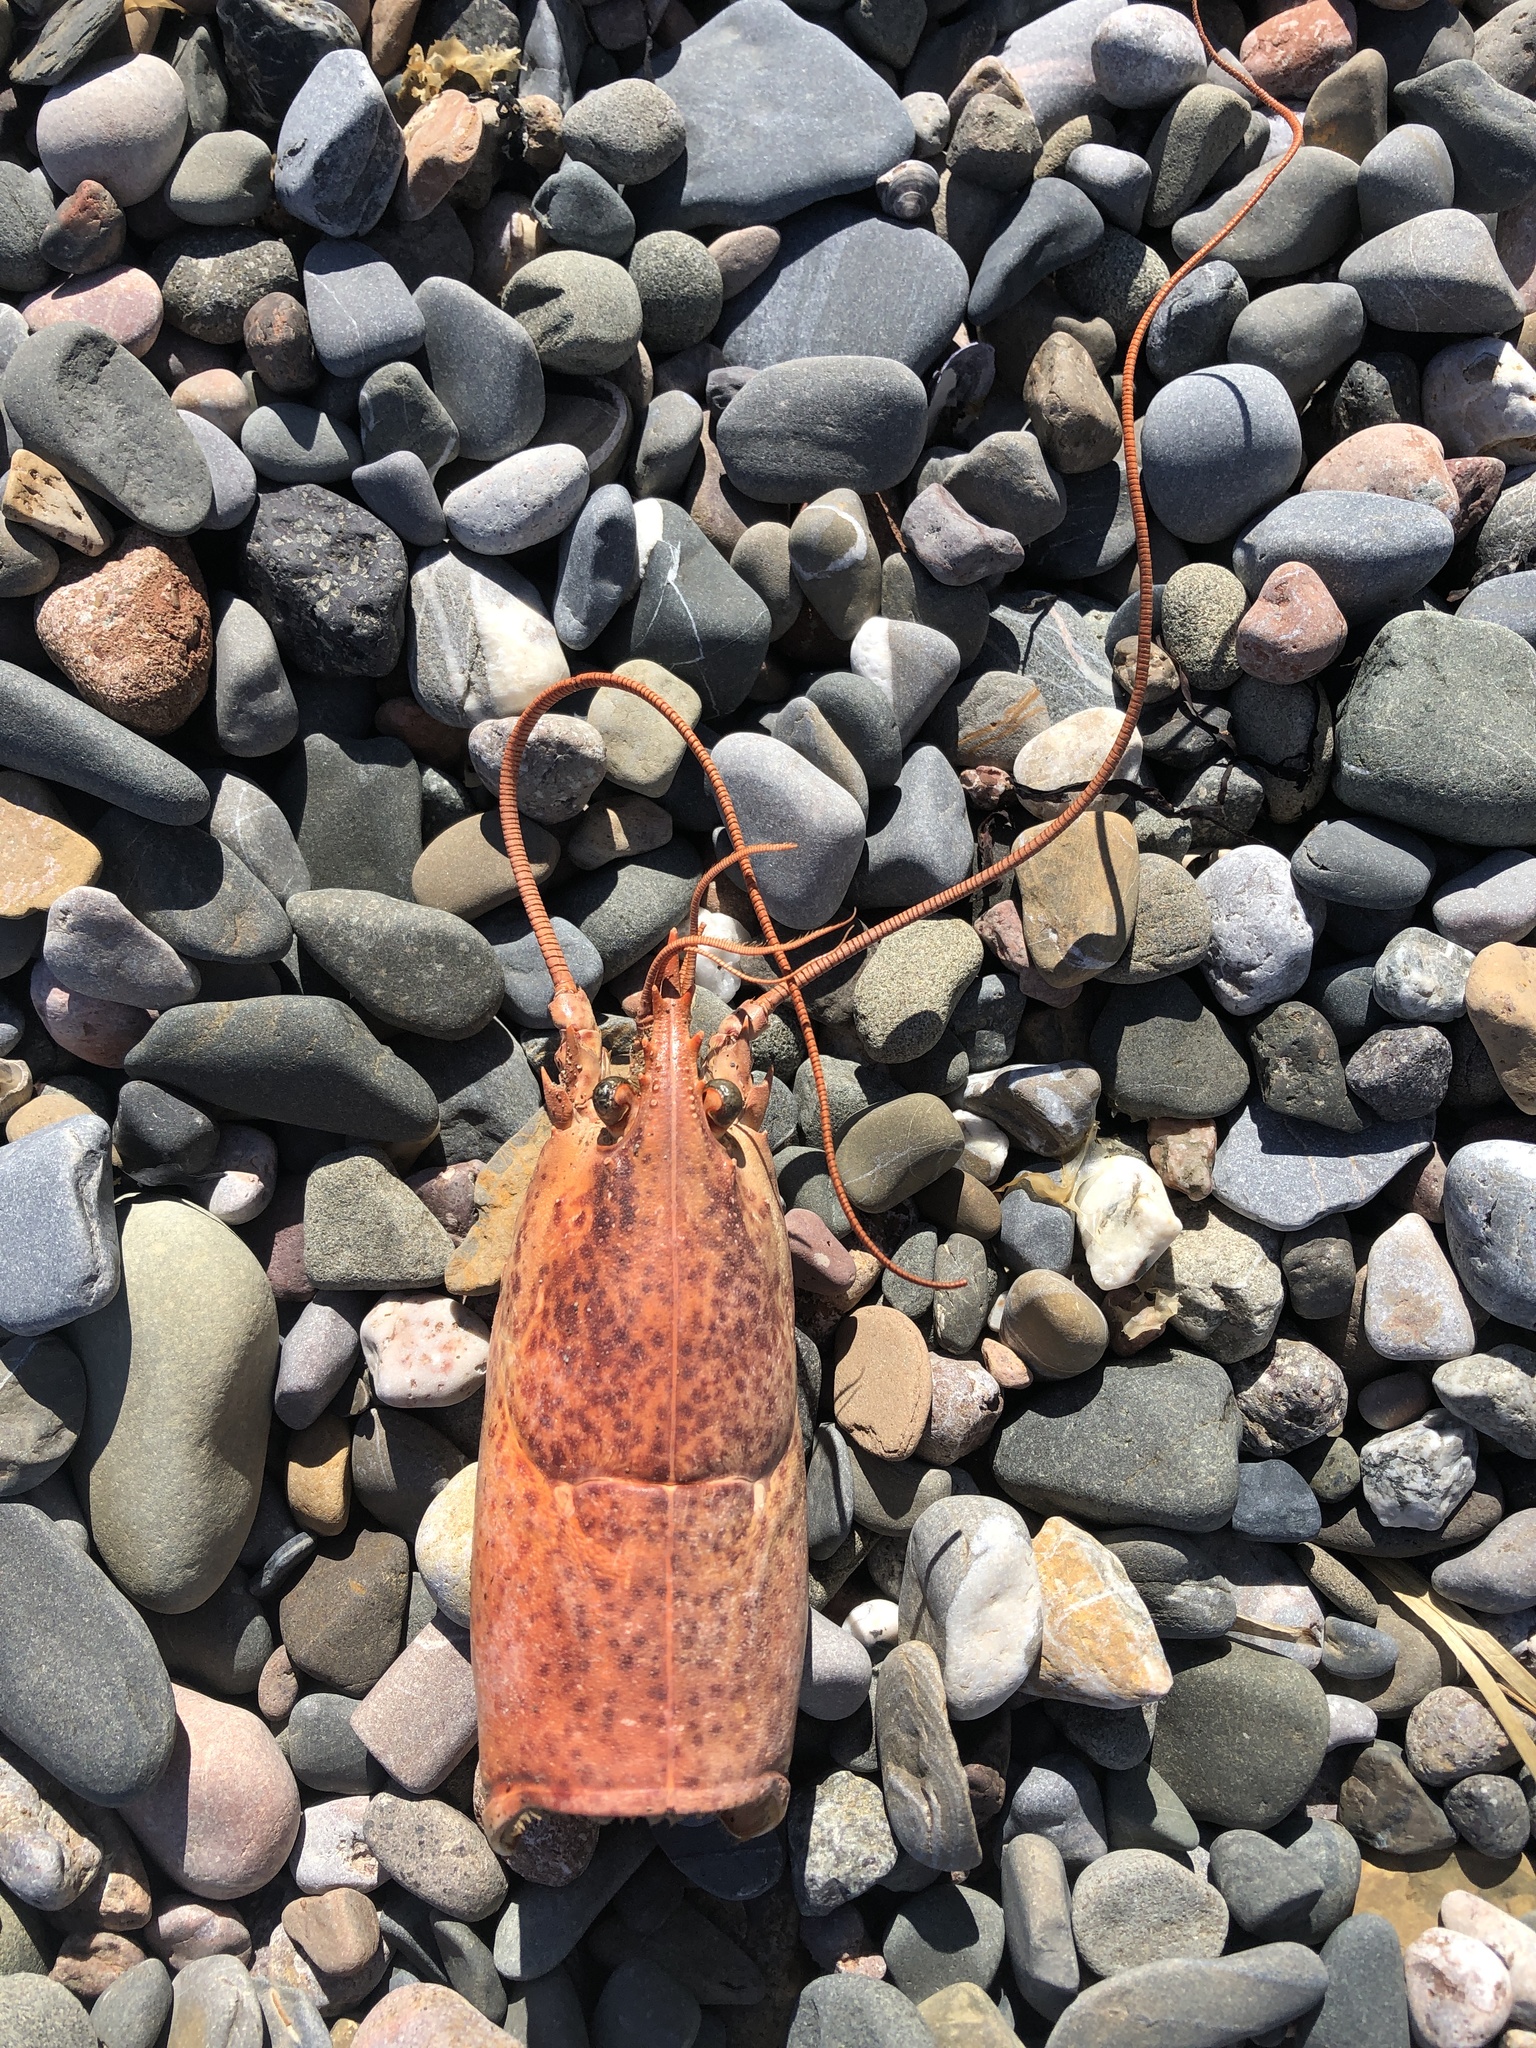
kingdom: Animalia
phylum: Arthropoda
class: Malacostraca
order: Decapoda
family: Nephropidae
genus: Homarus
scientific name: Homarus americanus
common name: American lobster
